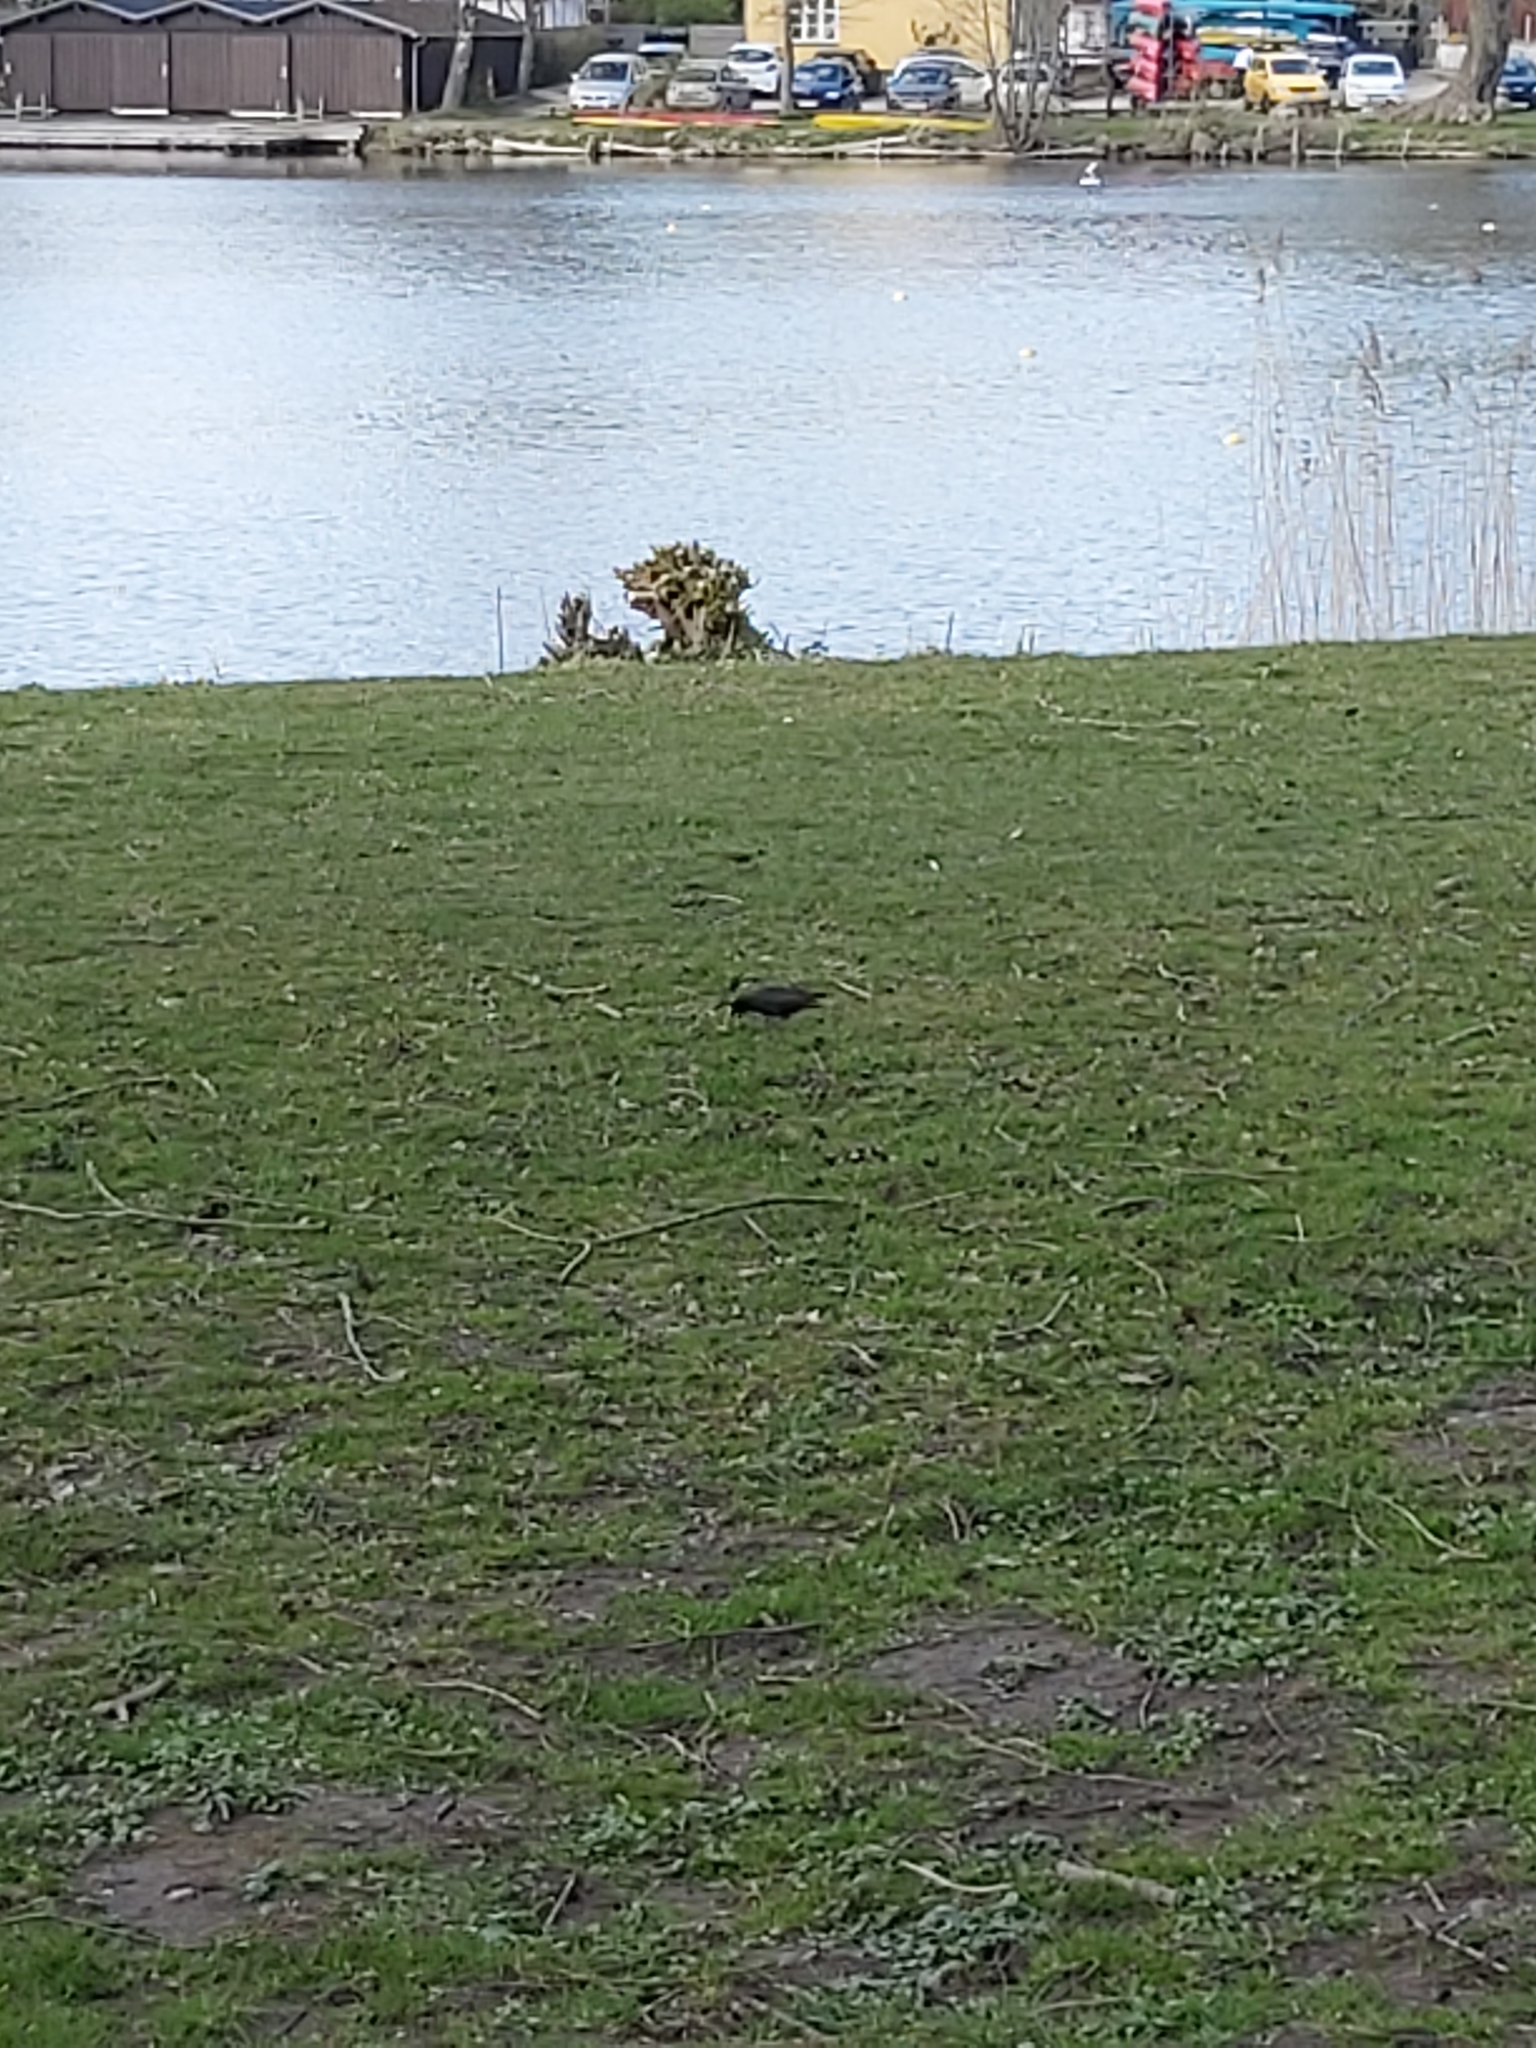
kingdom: Animalia
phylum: Chordata
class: Aves
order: Passeriformes
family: Sturnidae
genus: Sturnus
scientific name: Sturnus vulgaris
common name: Common starling
